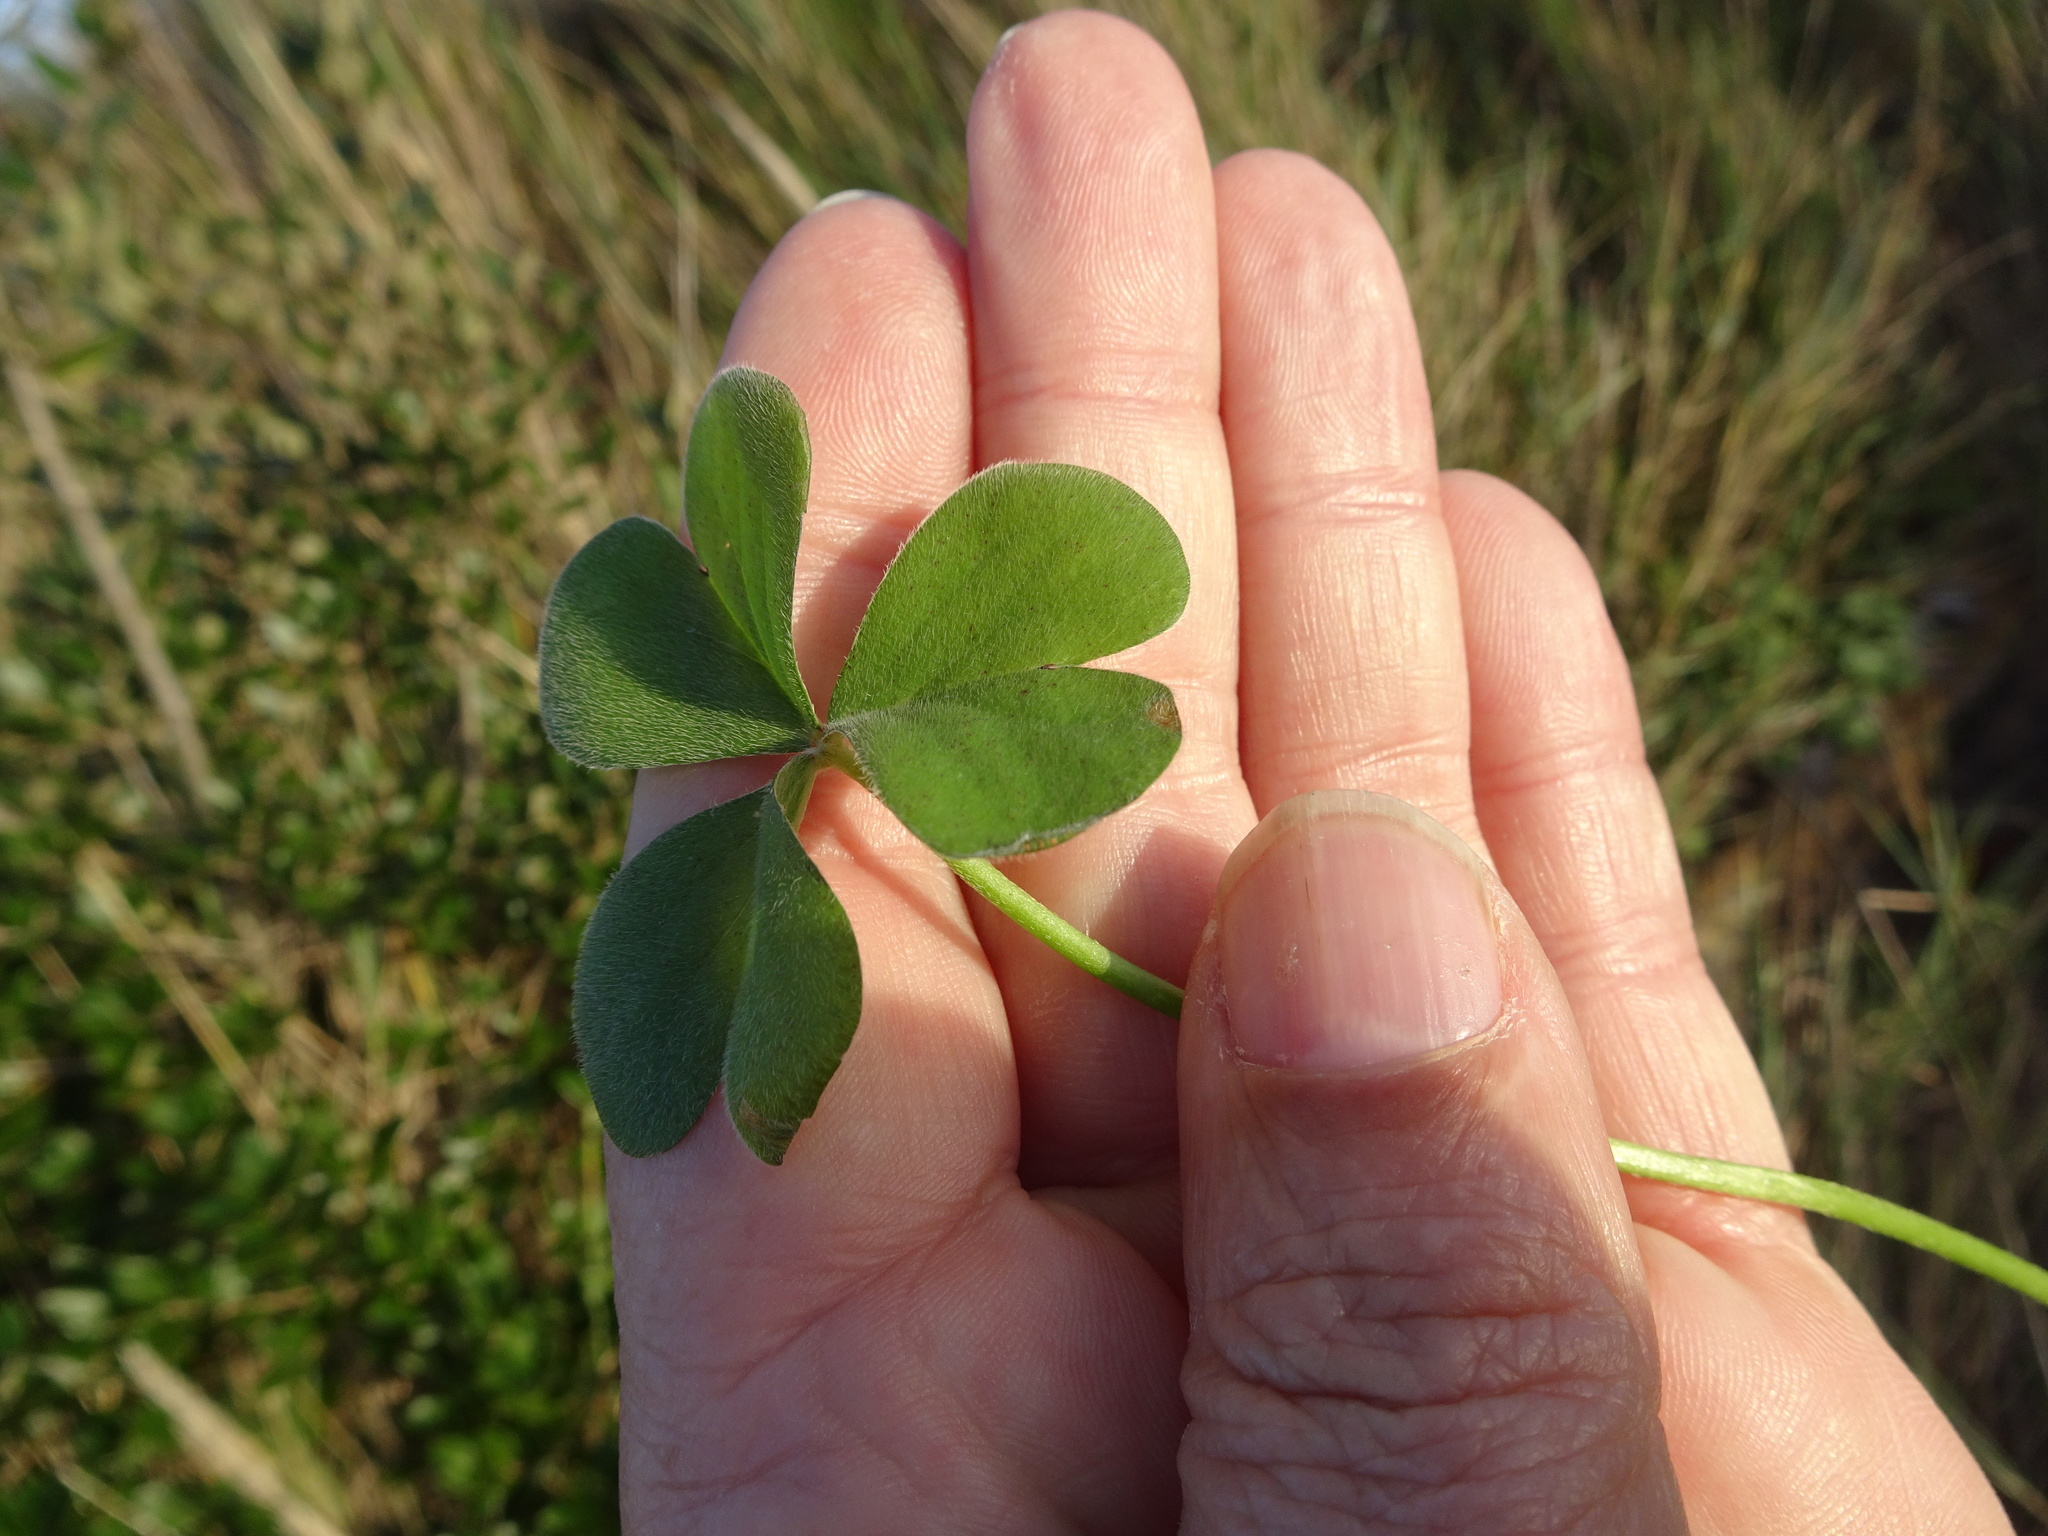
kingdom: Plantae
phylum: Tracheophyta
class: Magnoliopsida
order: Oxalidales
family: Oxalidaceae
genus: Oxalis
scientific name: Oxalis articulata
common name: Pink-sorrel
